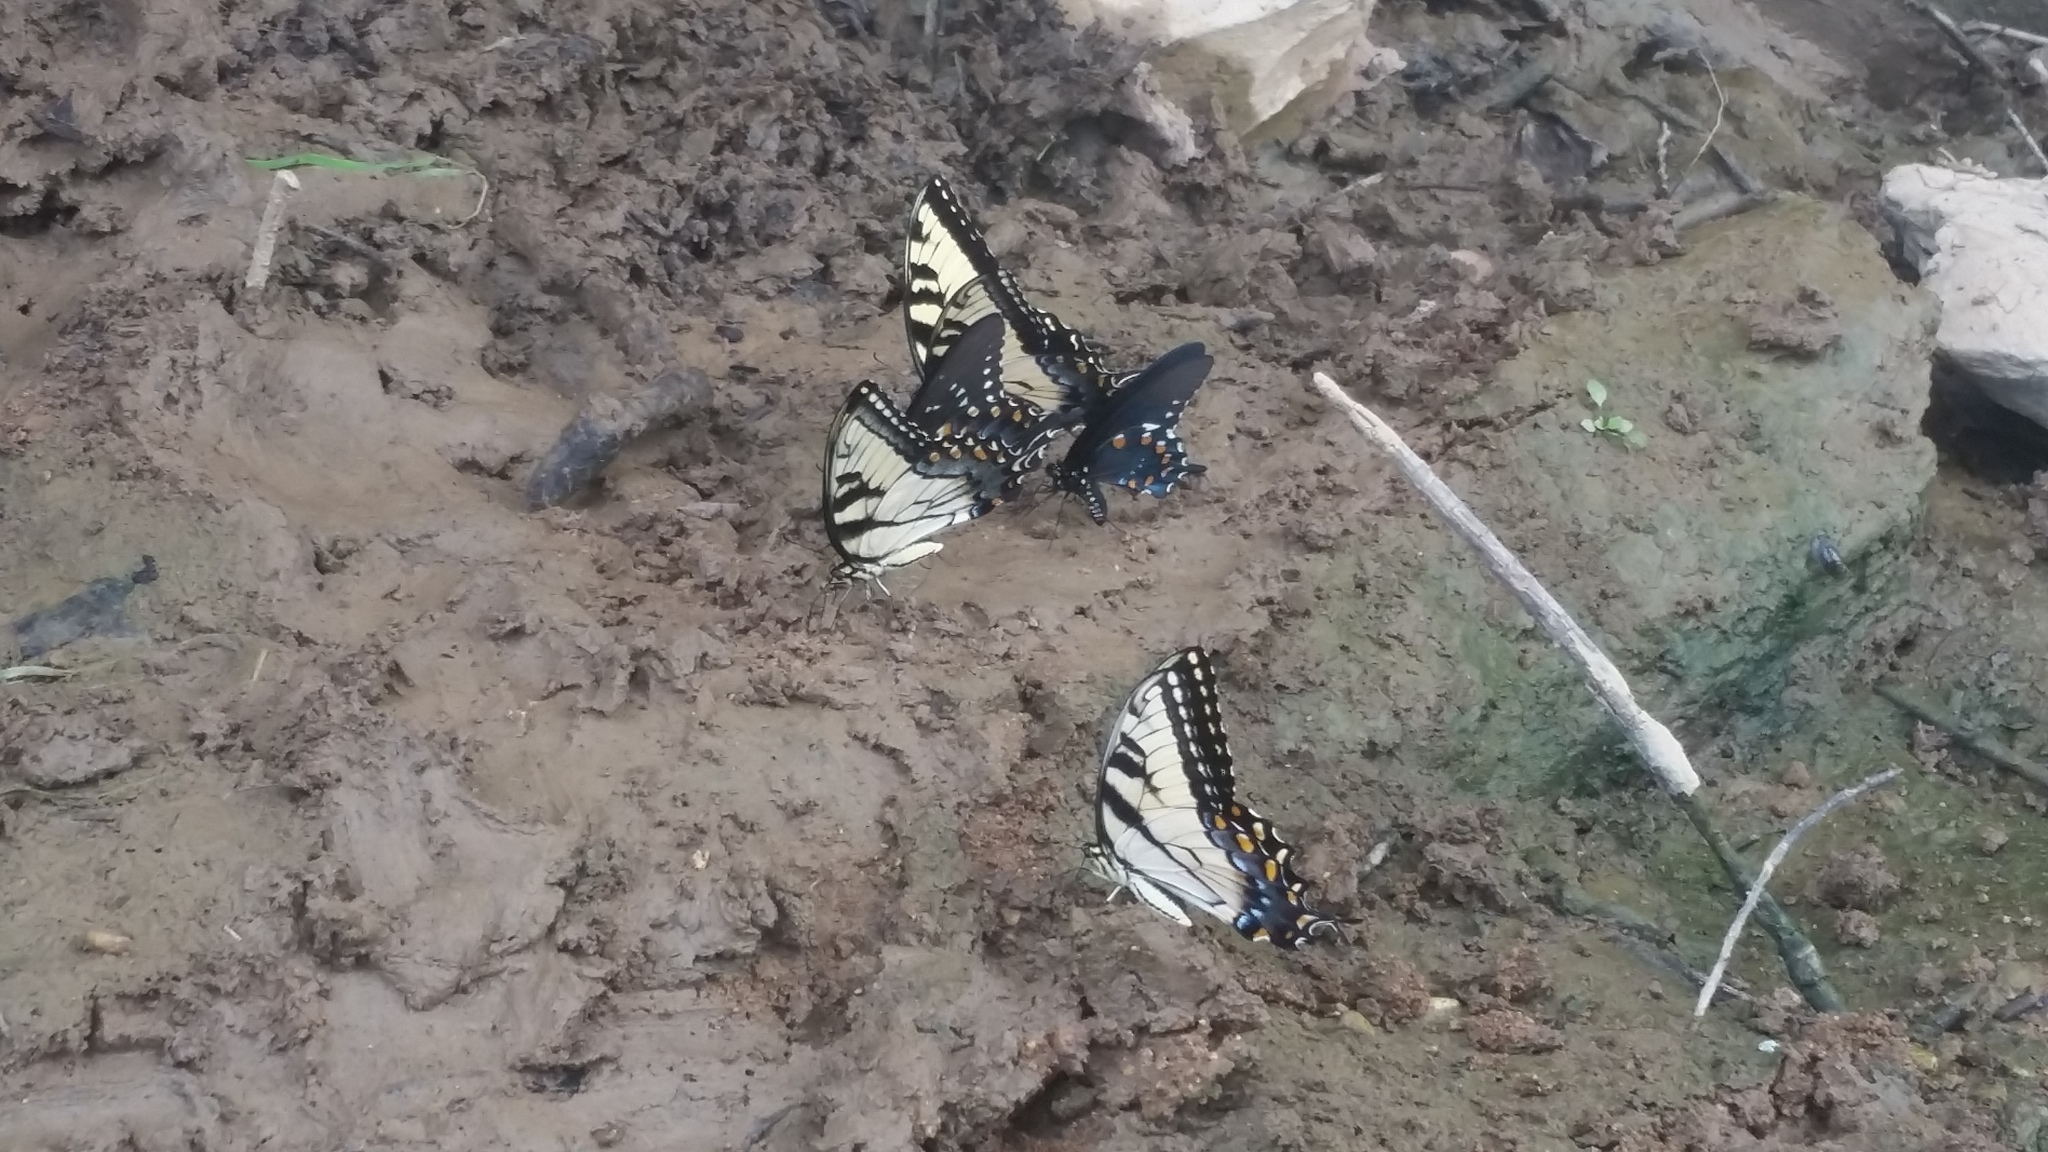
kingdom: Animalia
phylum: Arthropoda
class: Insecta
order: Lepidoptera
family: Papilionidae
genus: Battus
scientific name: Battus philenor
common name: Pipevine swallowtail
